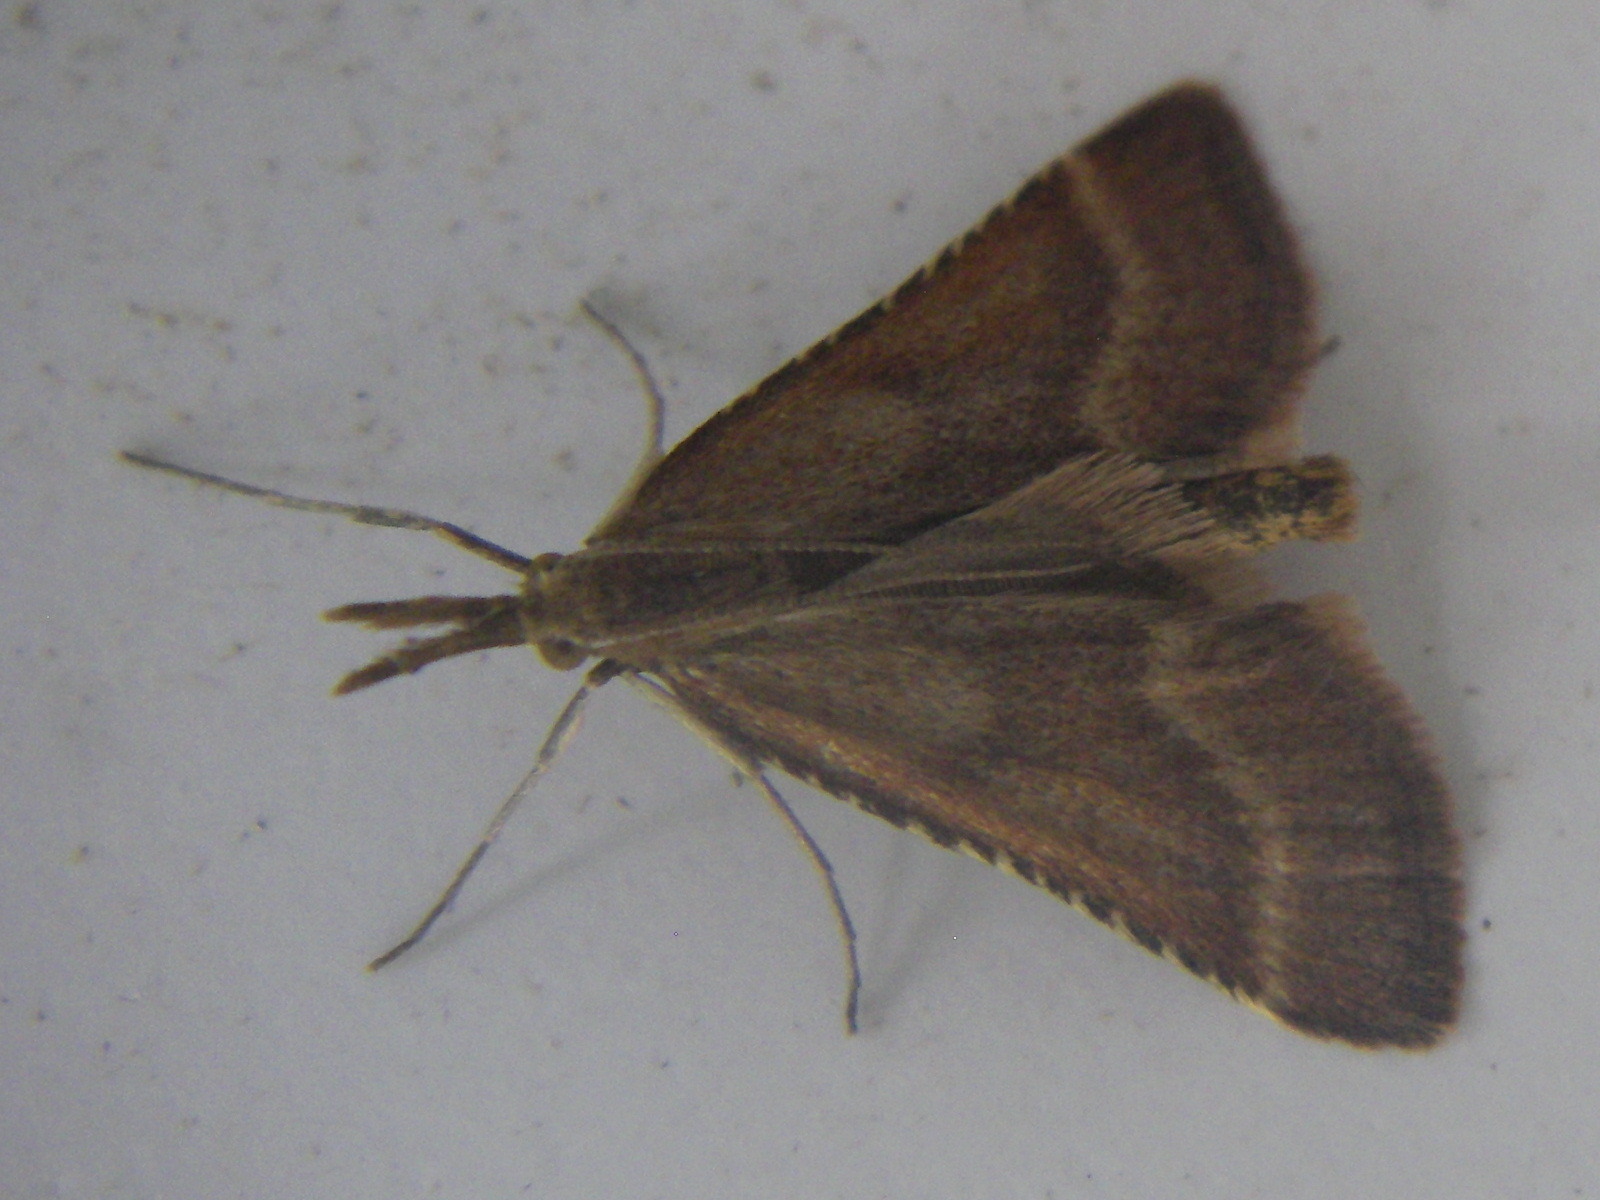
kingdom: Animalia
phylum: Arthropoda
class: Insecta
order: Lepidoptera
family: Pyralidae
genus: Synaphe
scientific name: Synaphe punctalis
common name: Long-legged tabby
